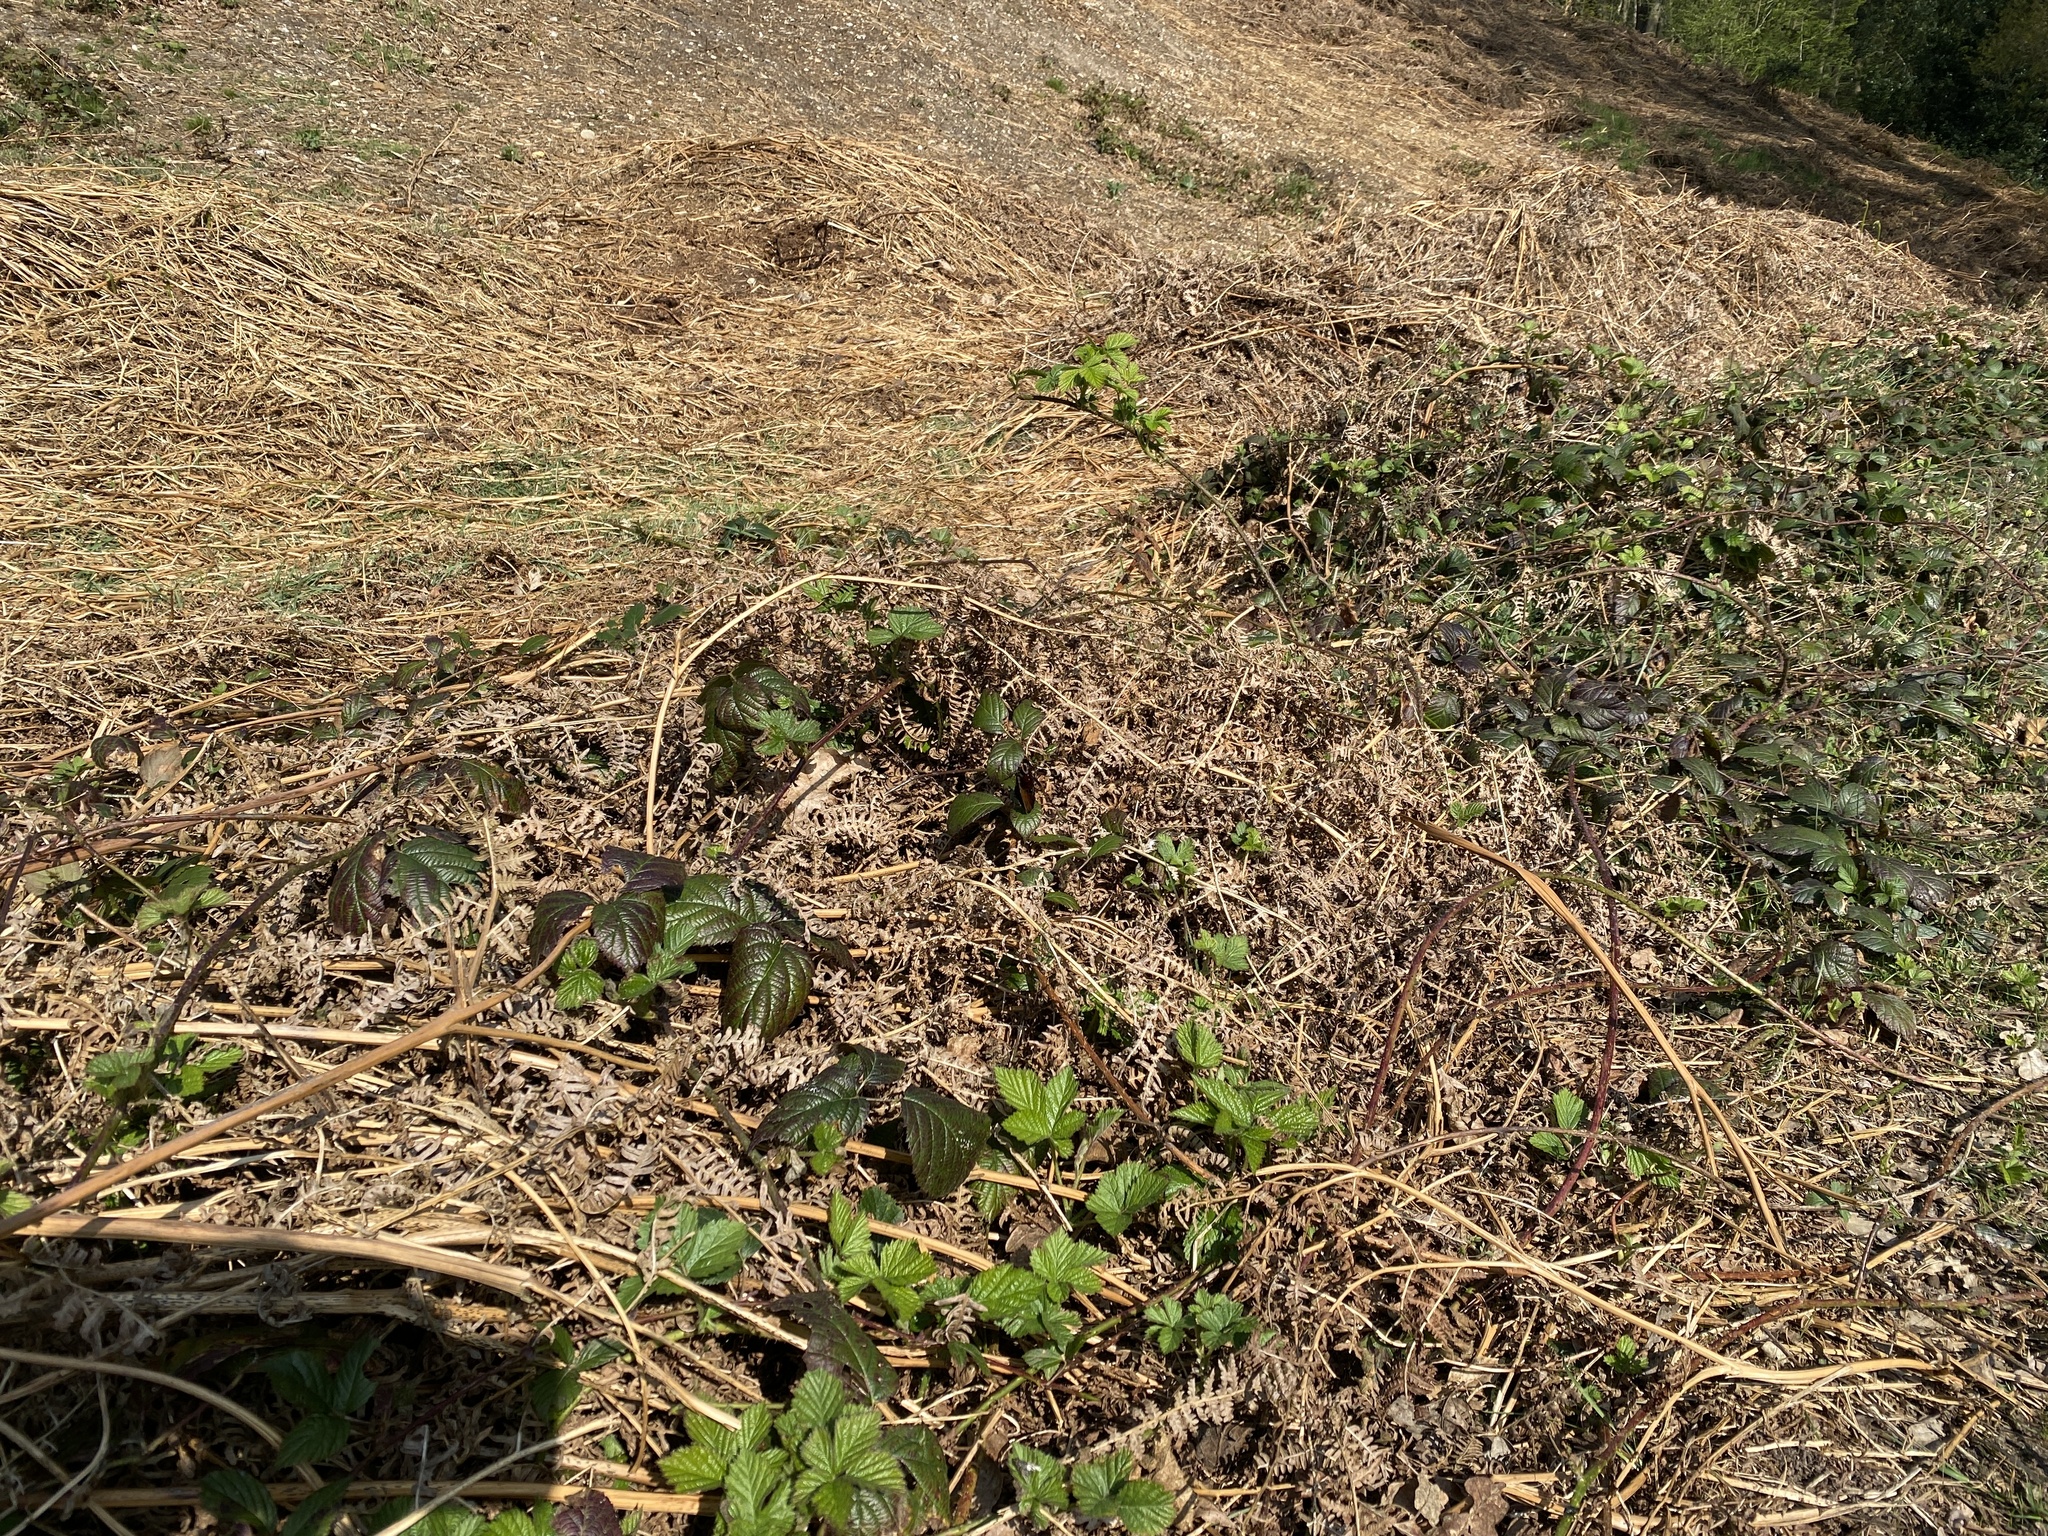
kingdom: Animalia
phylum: Arthropoda
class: Insecta
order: Lepidoptera
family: Nymphalidae
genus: Aglais
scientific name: Aglais io
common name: Peacock
